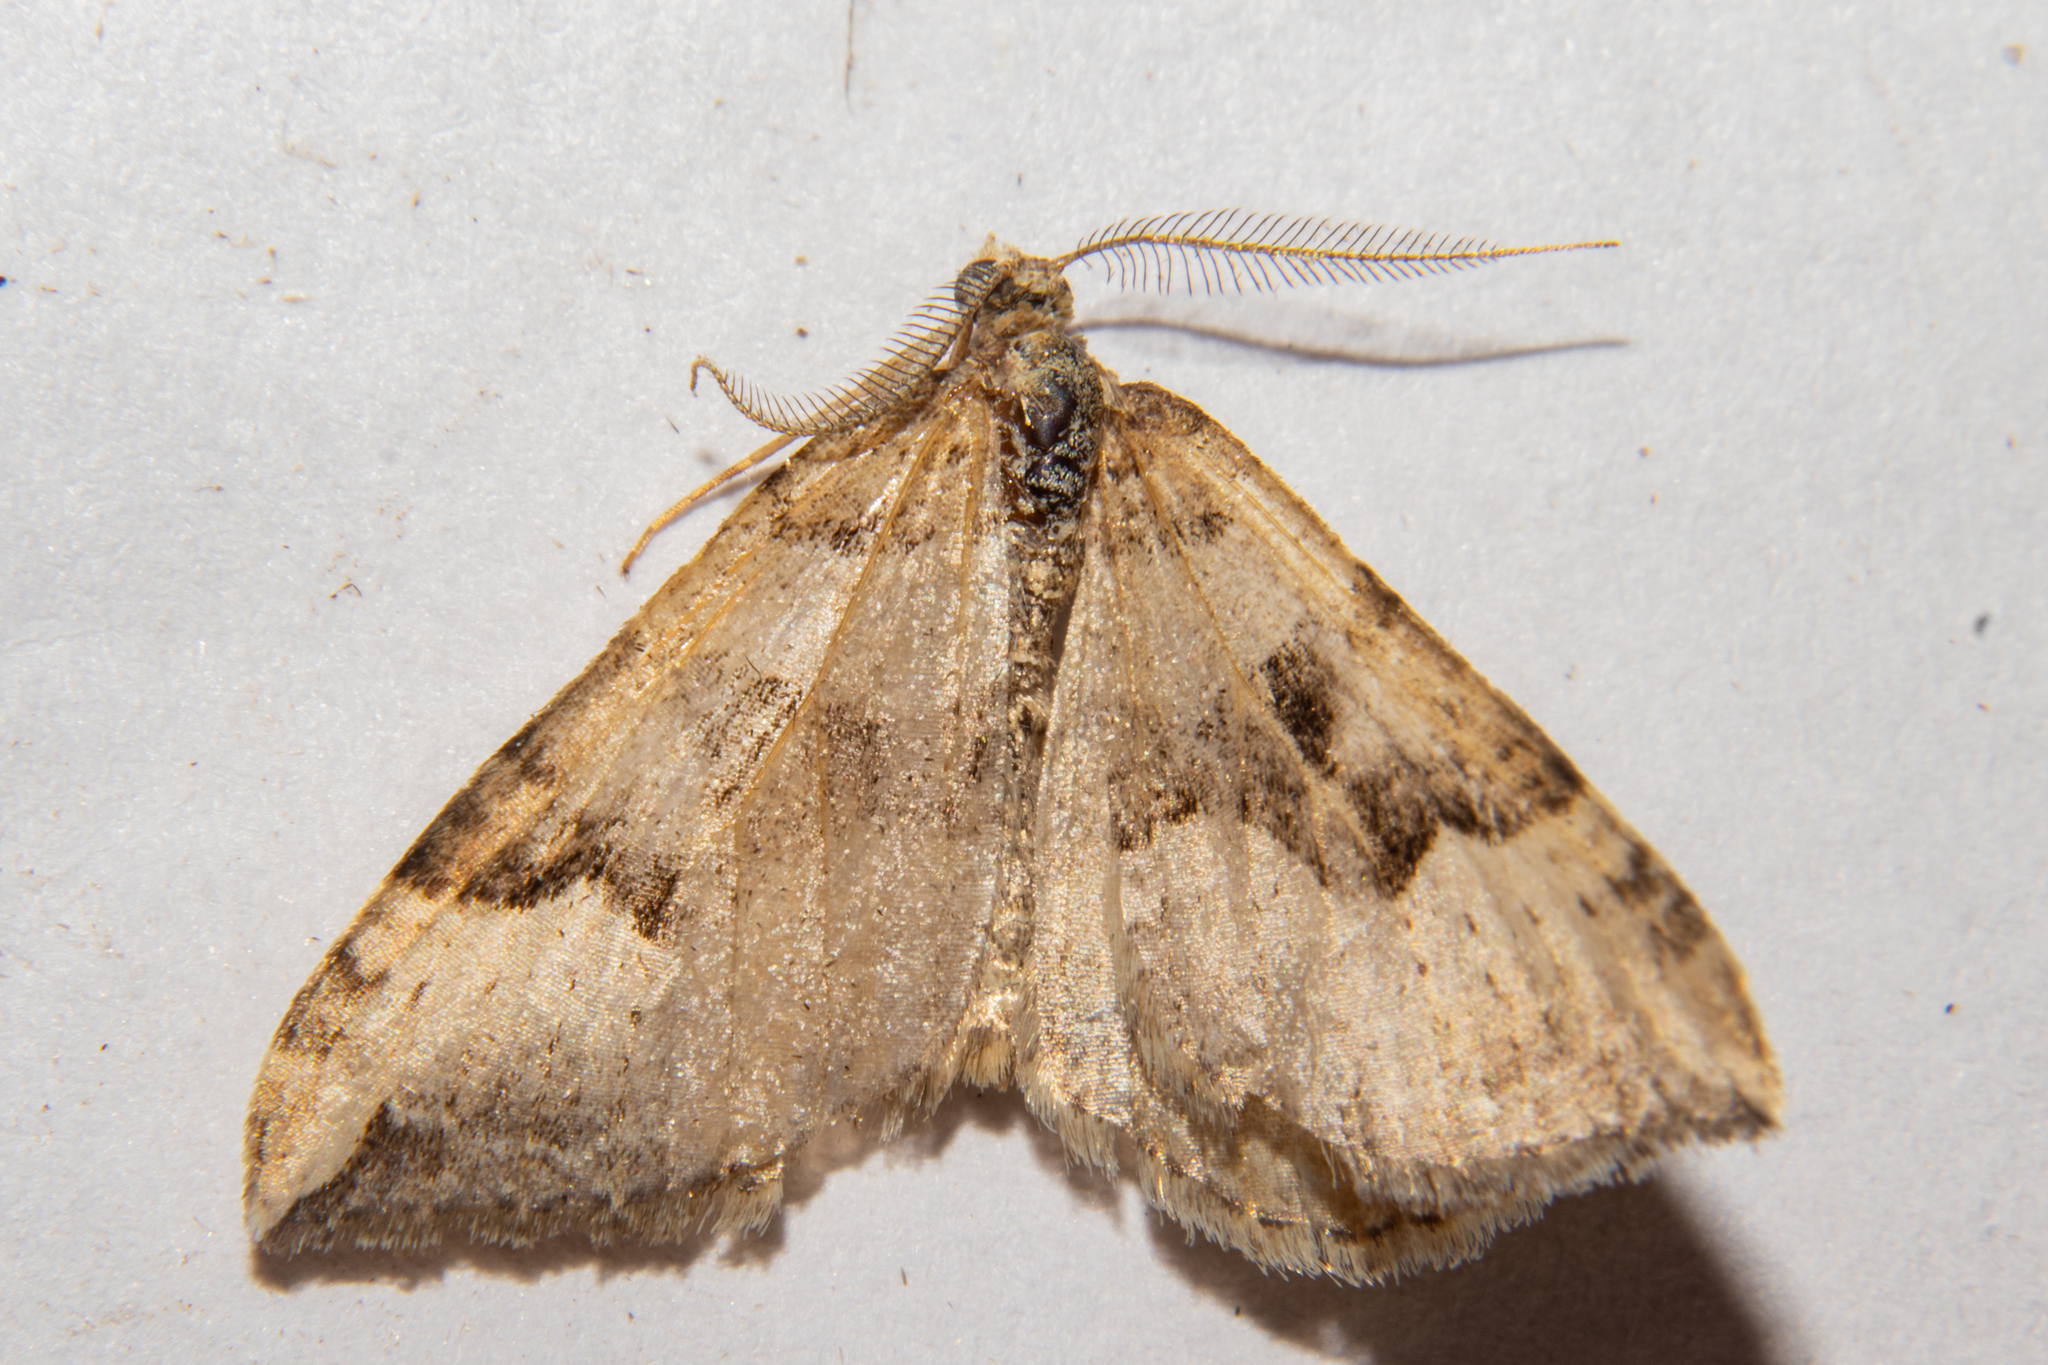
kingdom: Animalia
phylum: Arthropoda
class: Insecta
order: Lepidoptera
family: Geometridae
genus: Xanthorhoe
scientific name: Xanthorhoe semifissata
